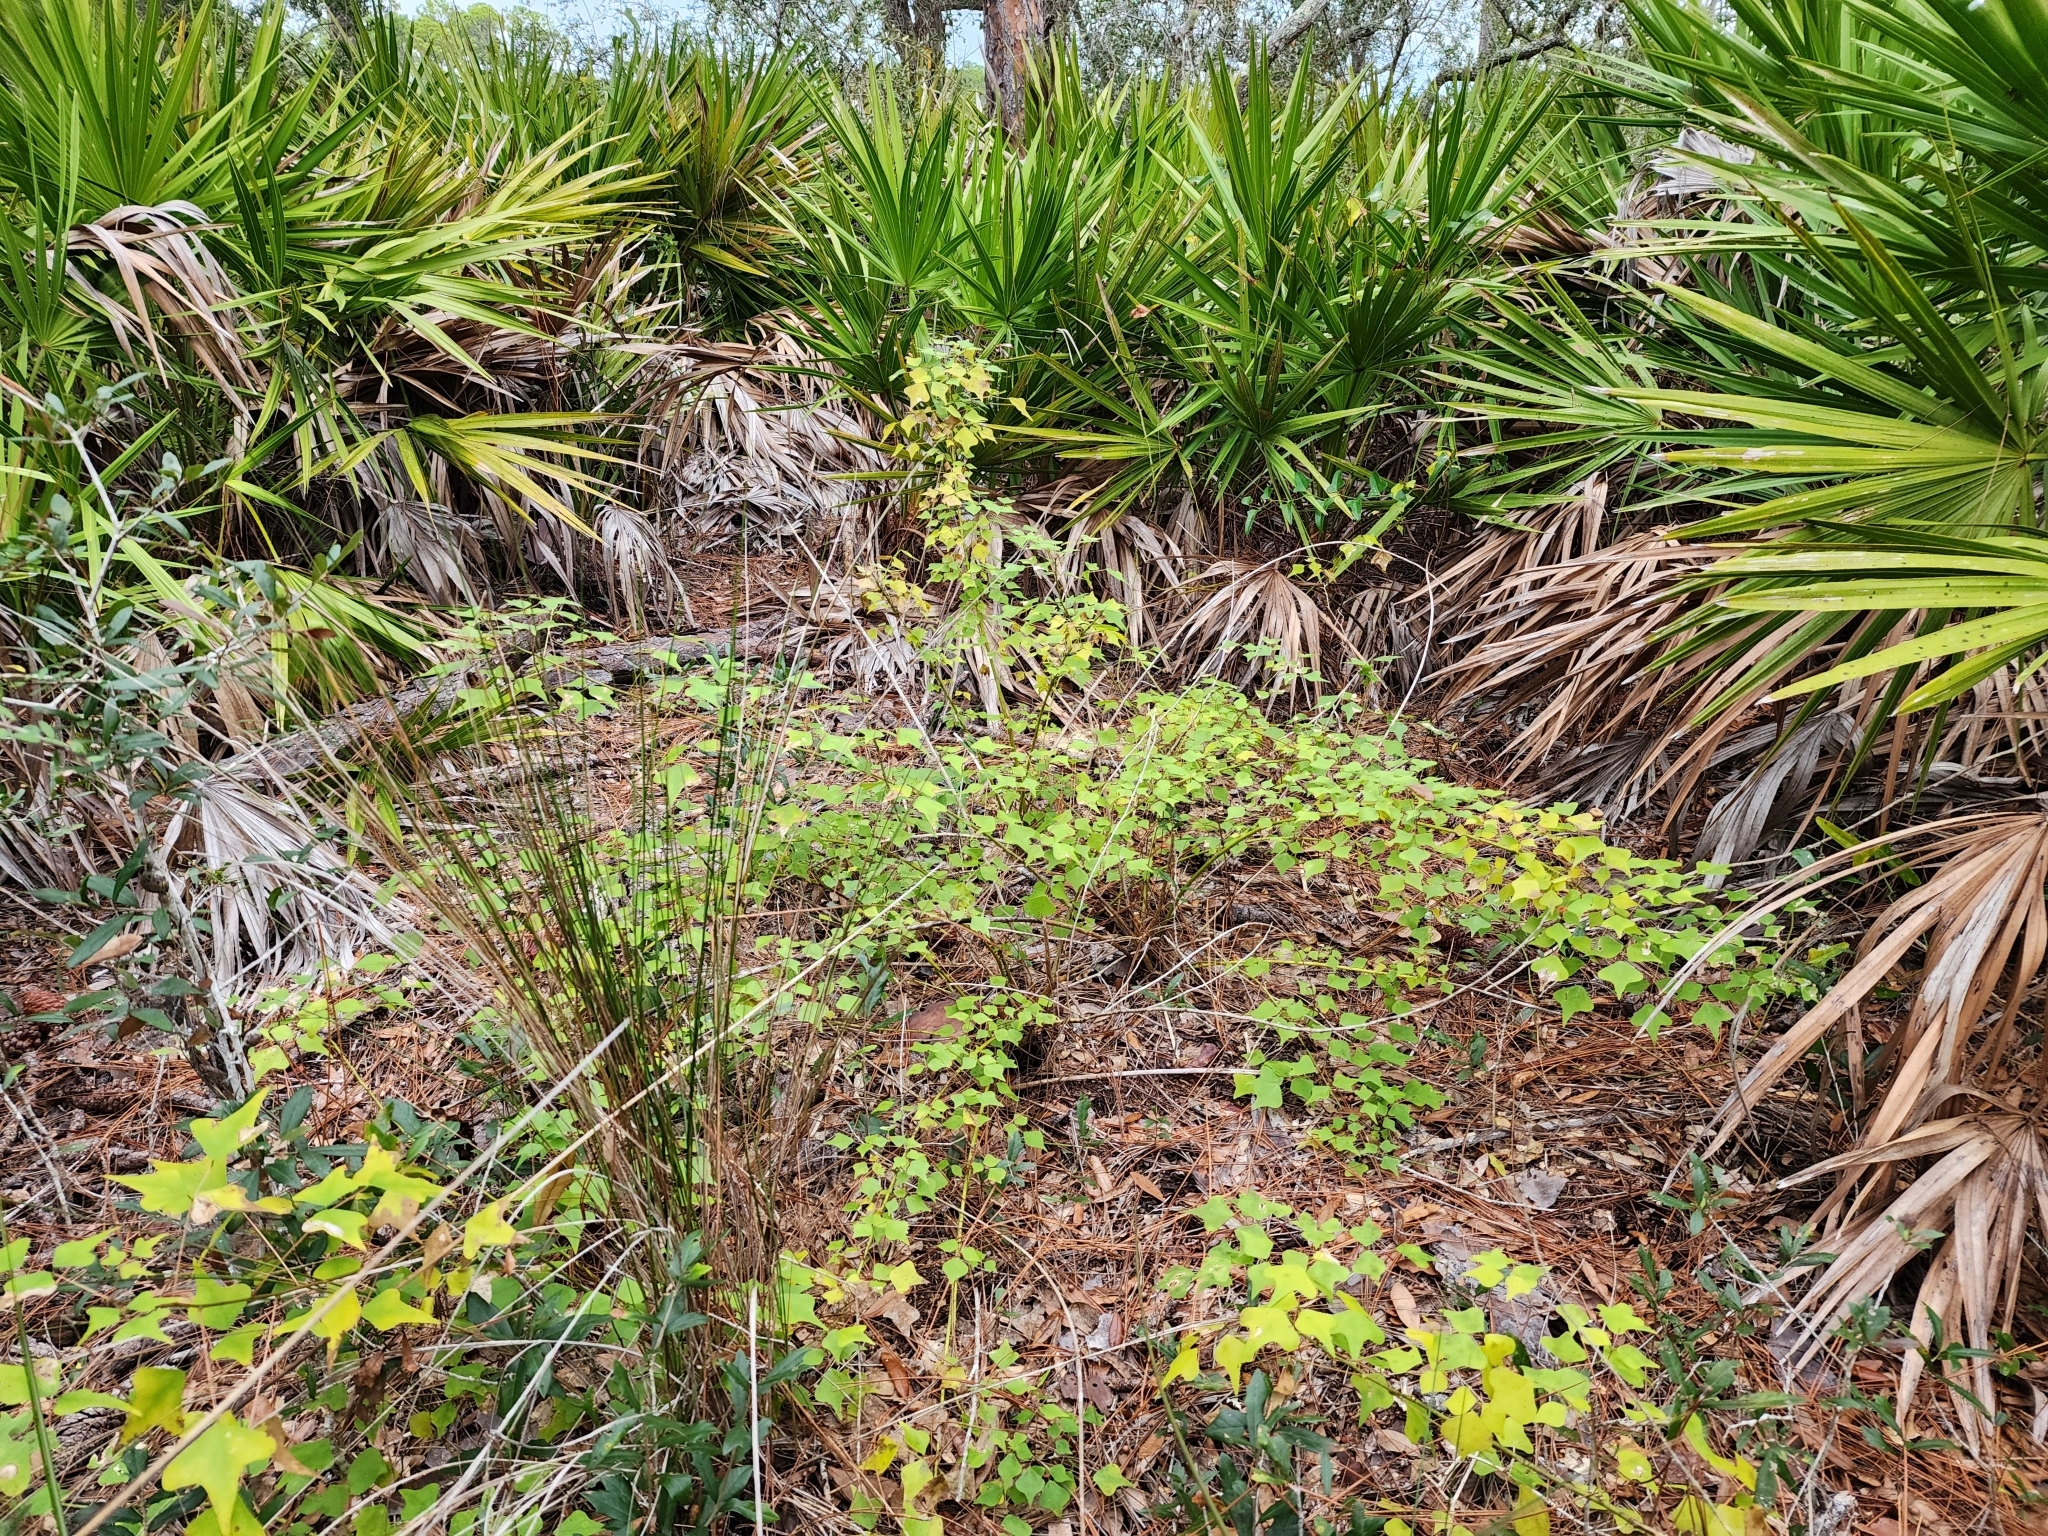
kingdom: Plantae
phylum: Tracheophyta
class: Magnoliopsida
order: Fabales
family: Fabaceae
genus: Erythrina
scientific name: Erythrina herbacea
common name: Coral-bean
